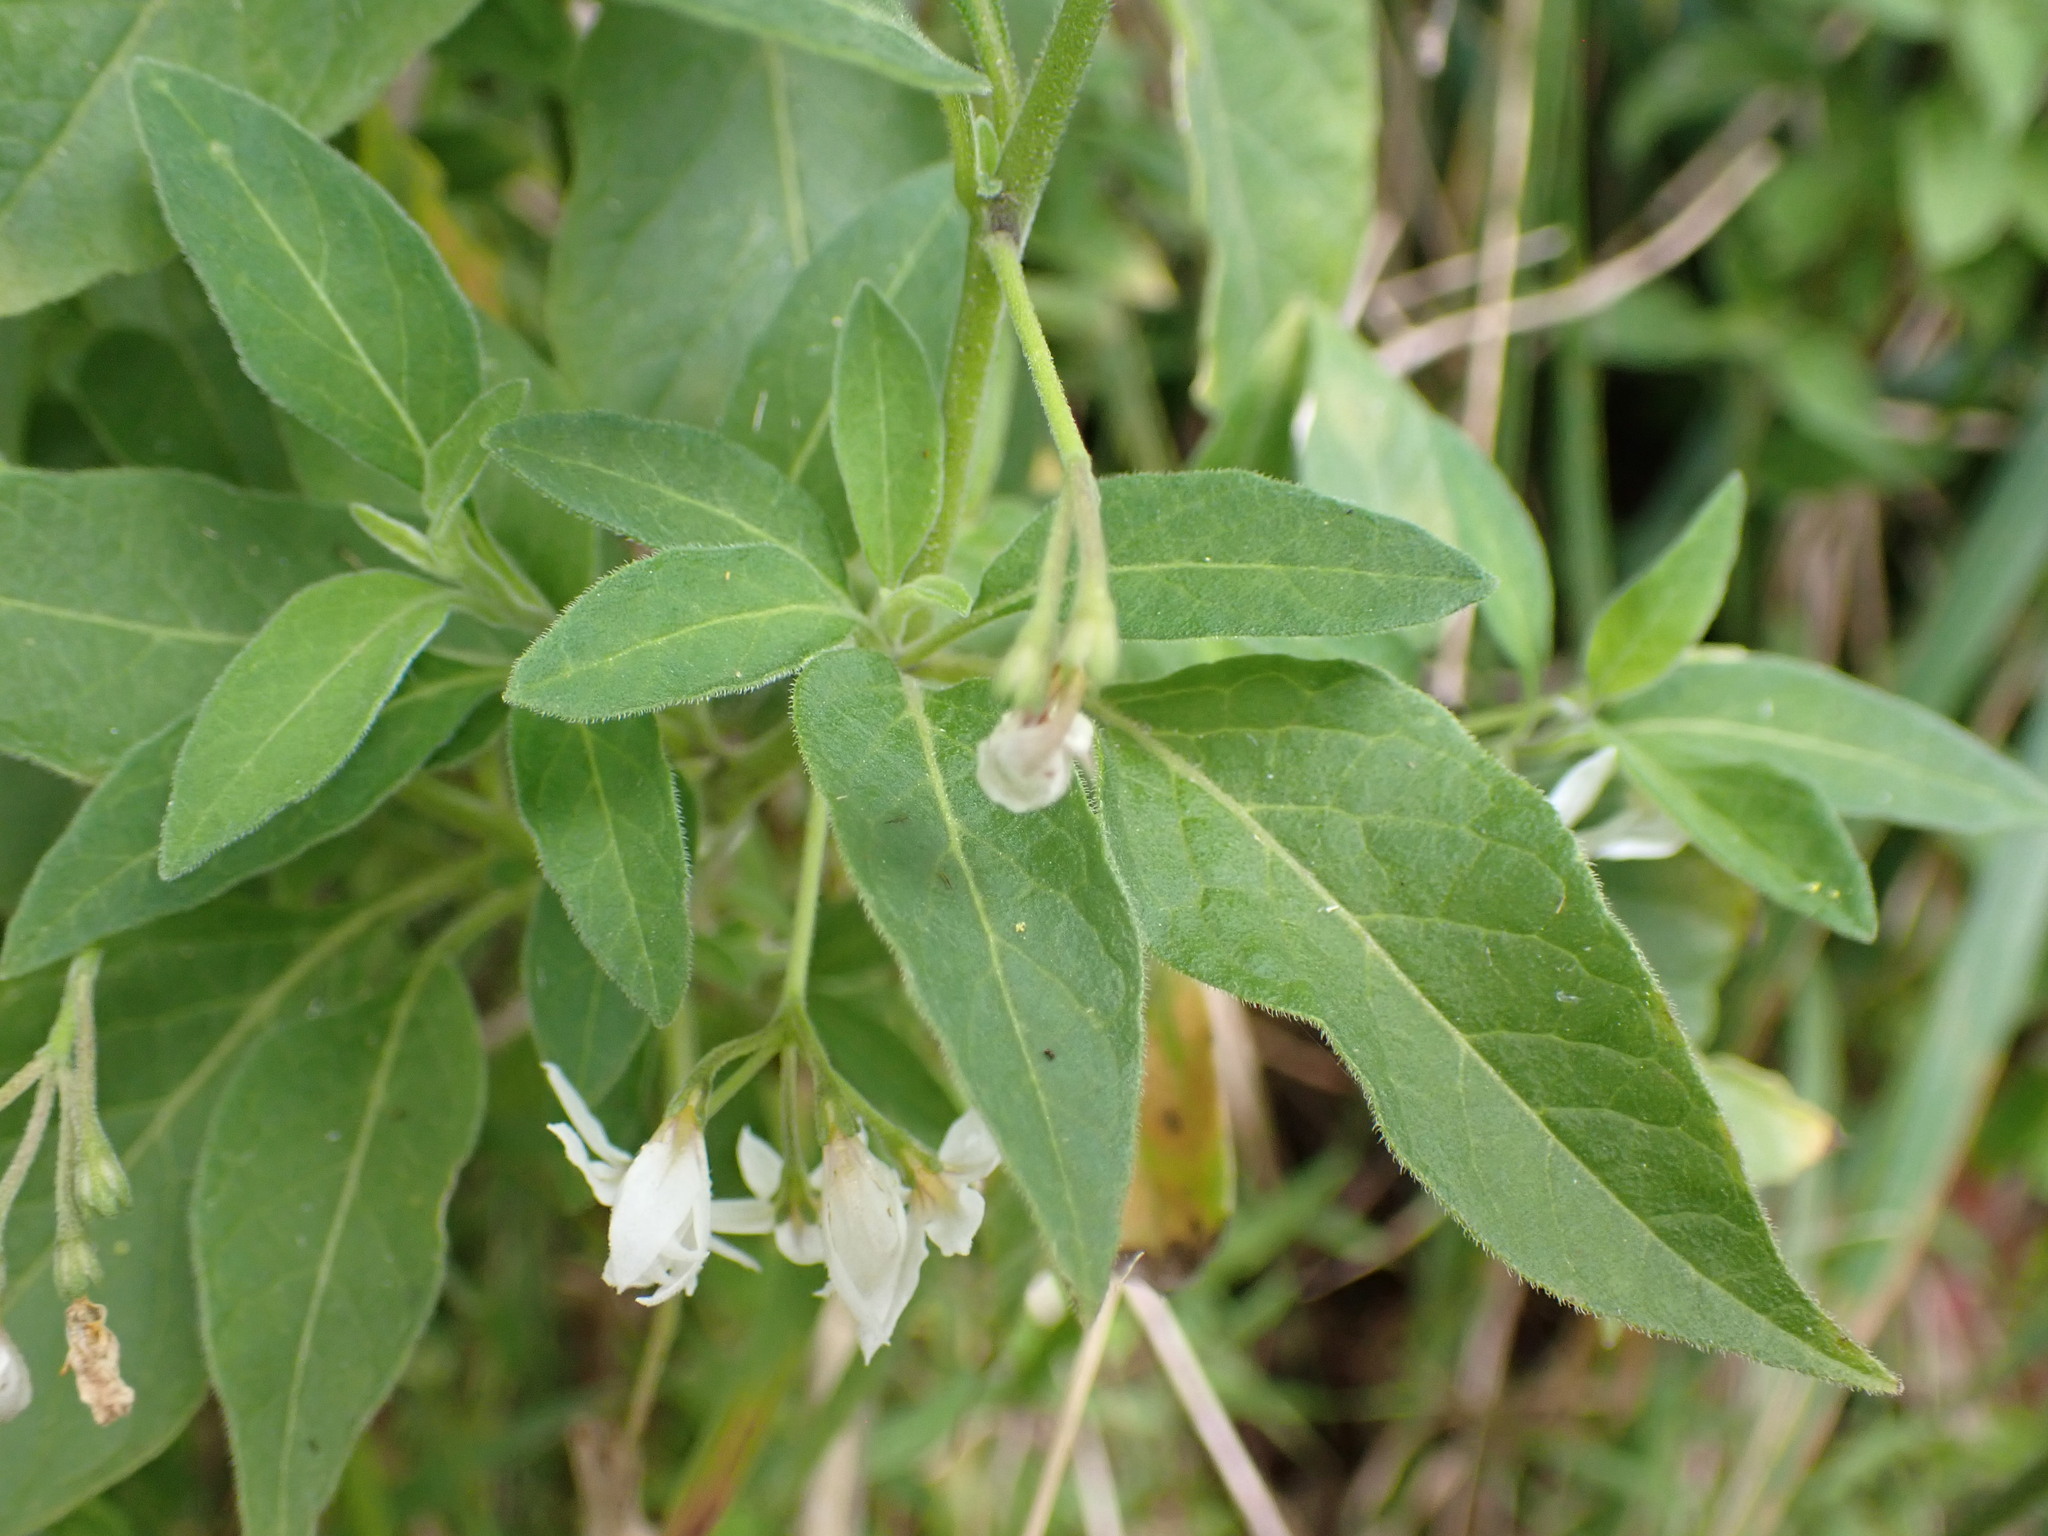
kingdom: Plantae
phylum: Tracheophyta
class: Magnoliopsida
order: Solanales
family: Solanaceae
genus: Solanum
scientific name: Solanum chenopodioides
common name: Tall nightshade
